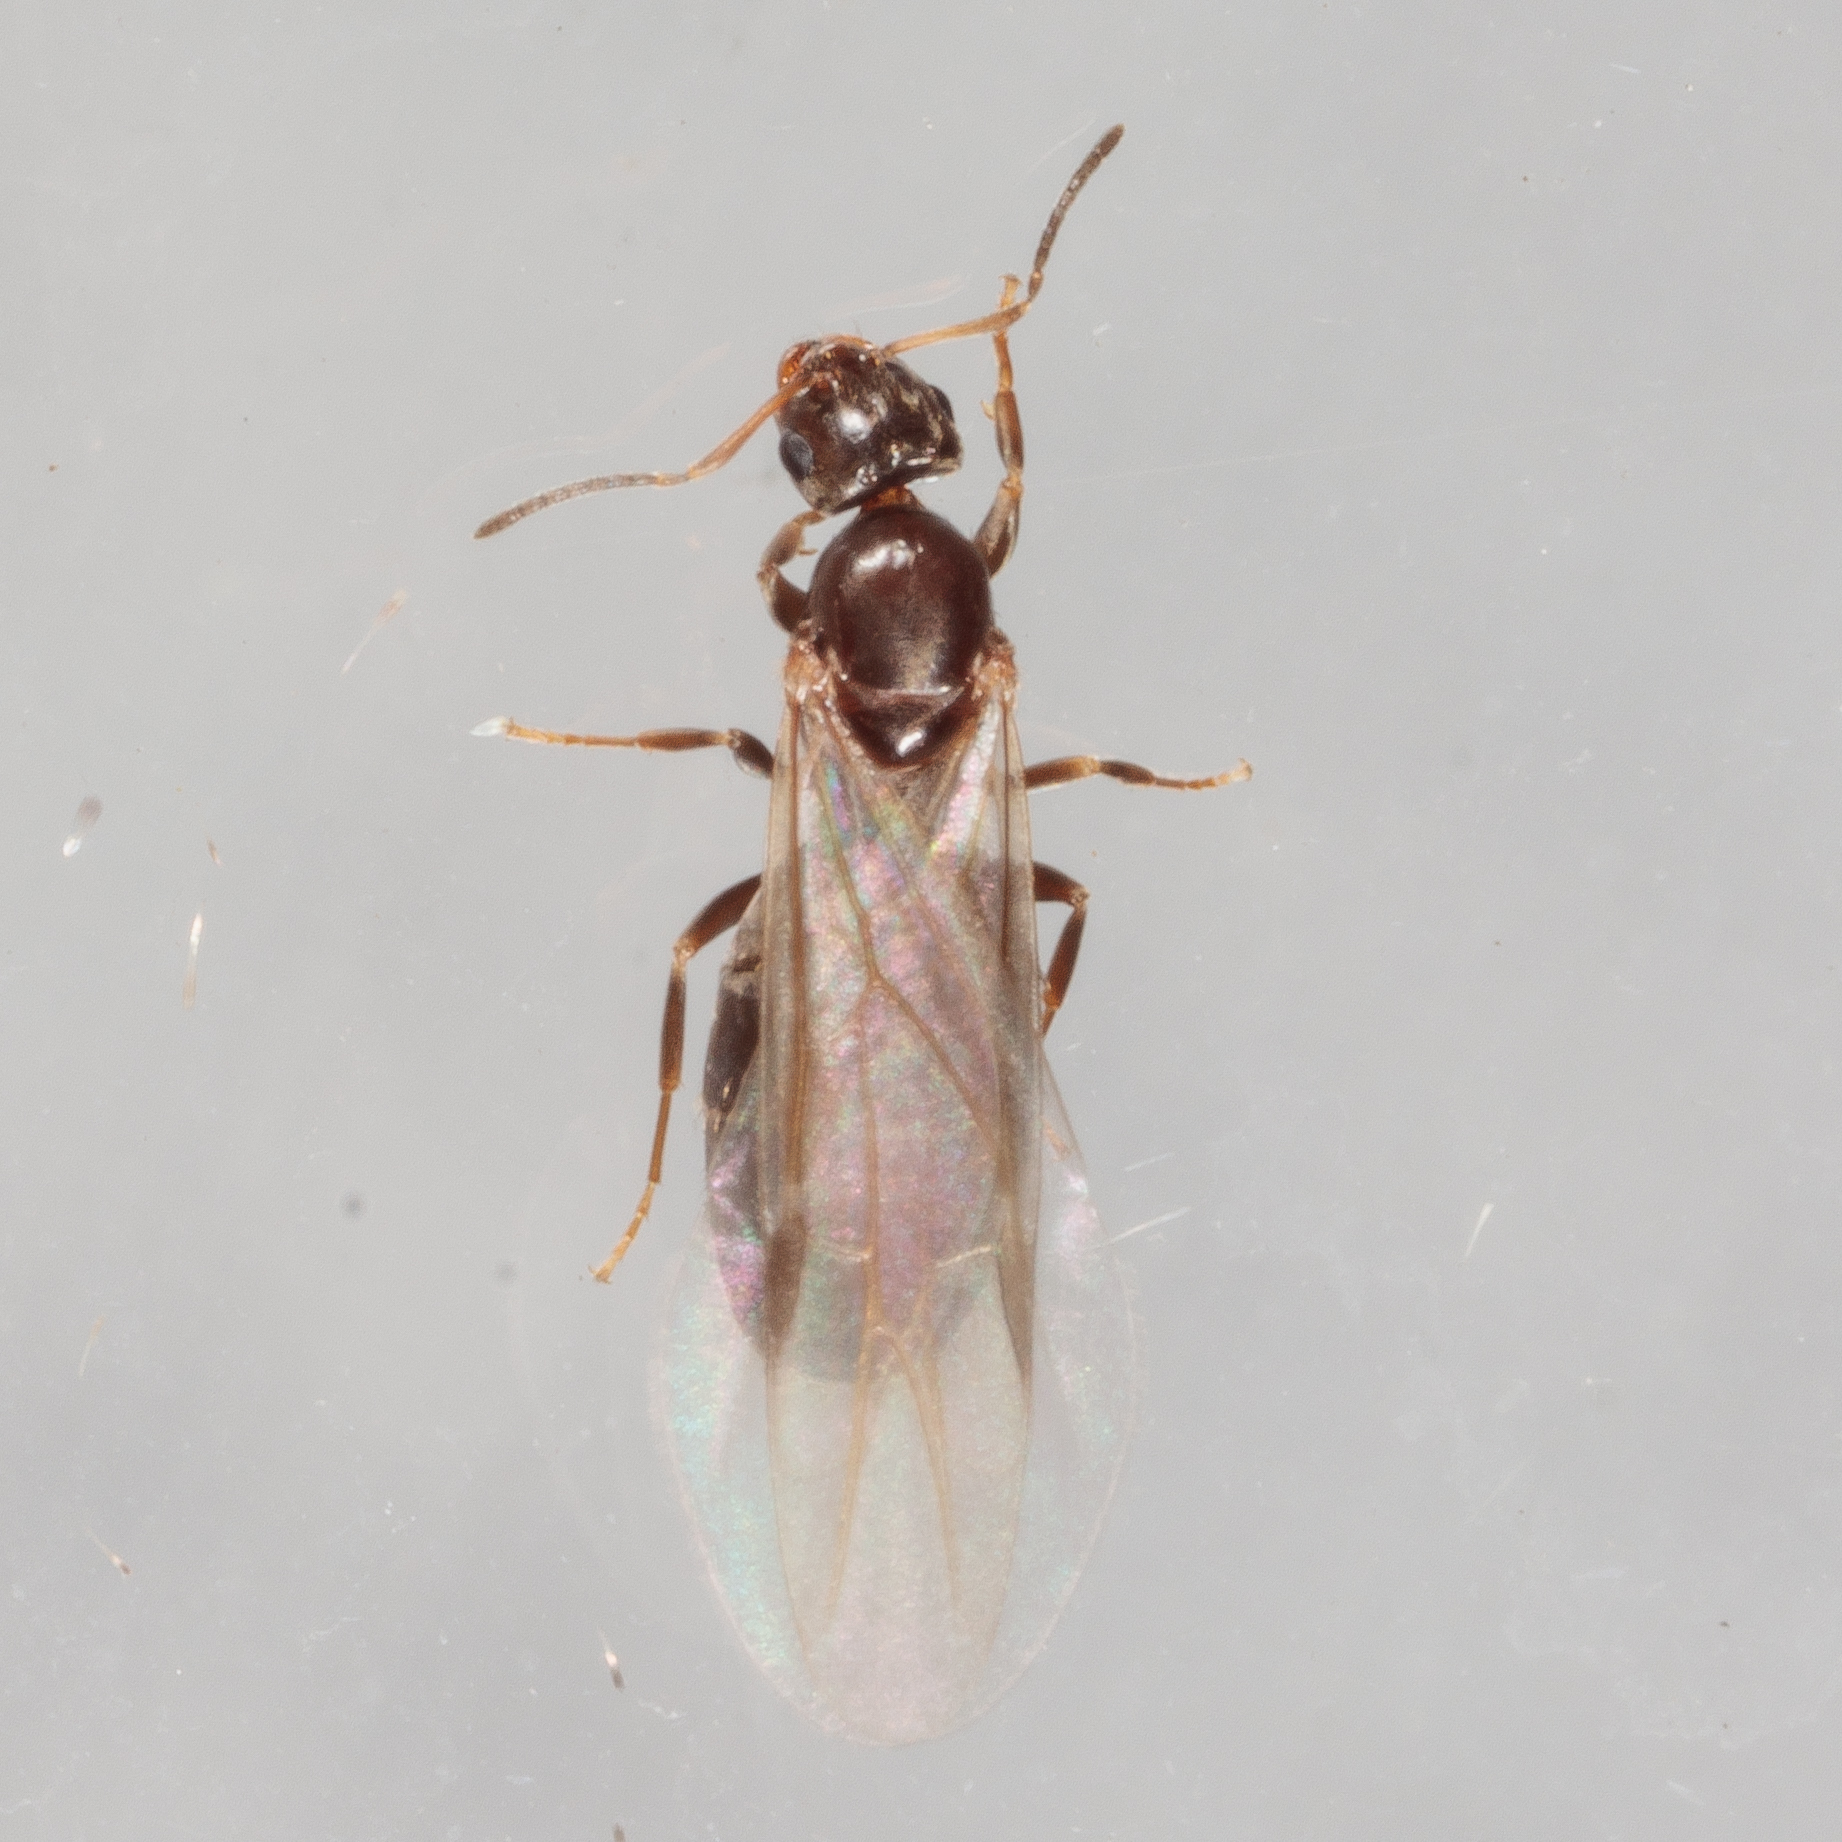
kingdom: Animalia
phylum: Arthropoda
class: Insecta
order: Hymenoptera
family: Formicidae
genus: Brachymyrmex
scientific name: Brachymyrmex patagonicus
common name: Dark rover ant
